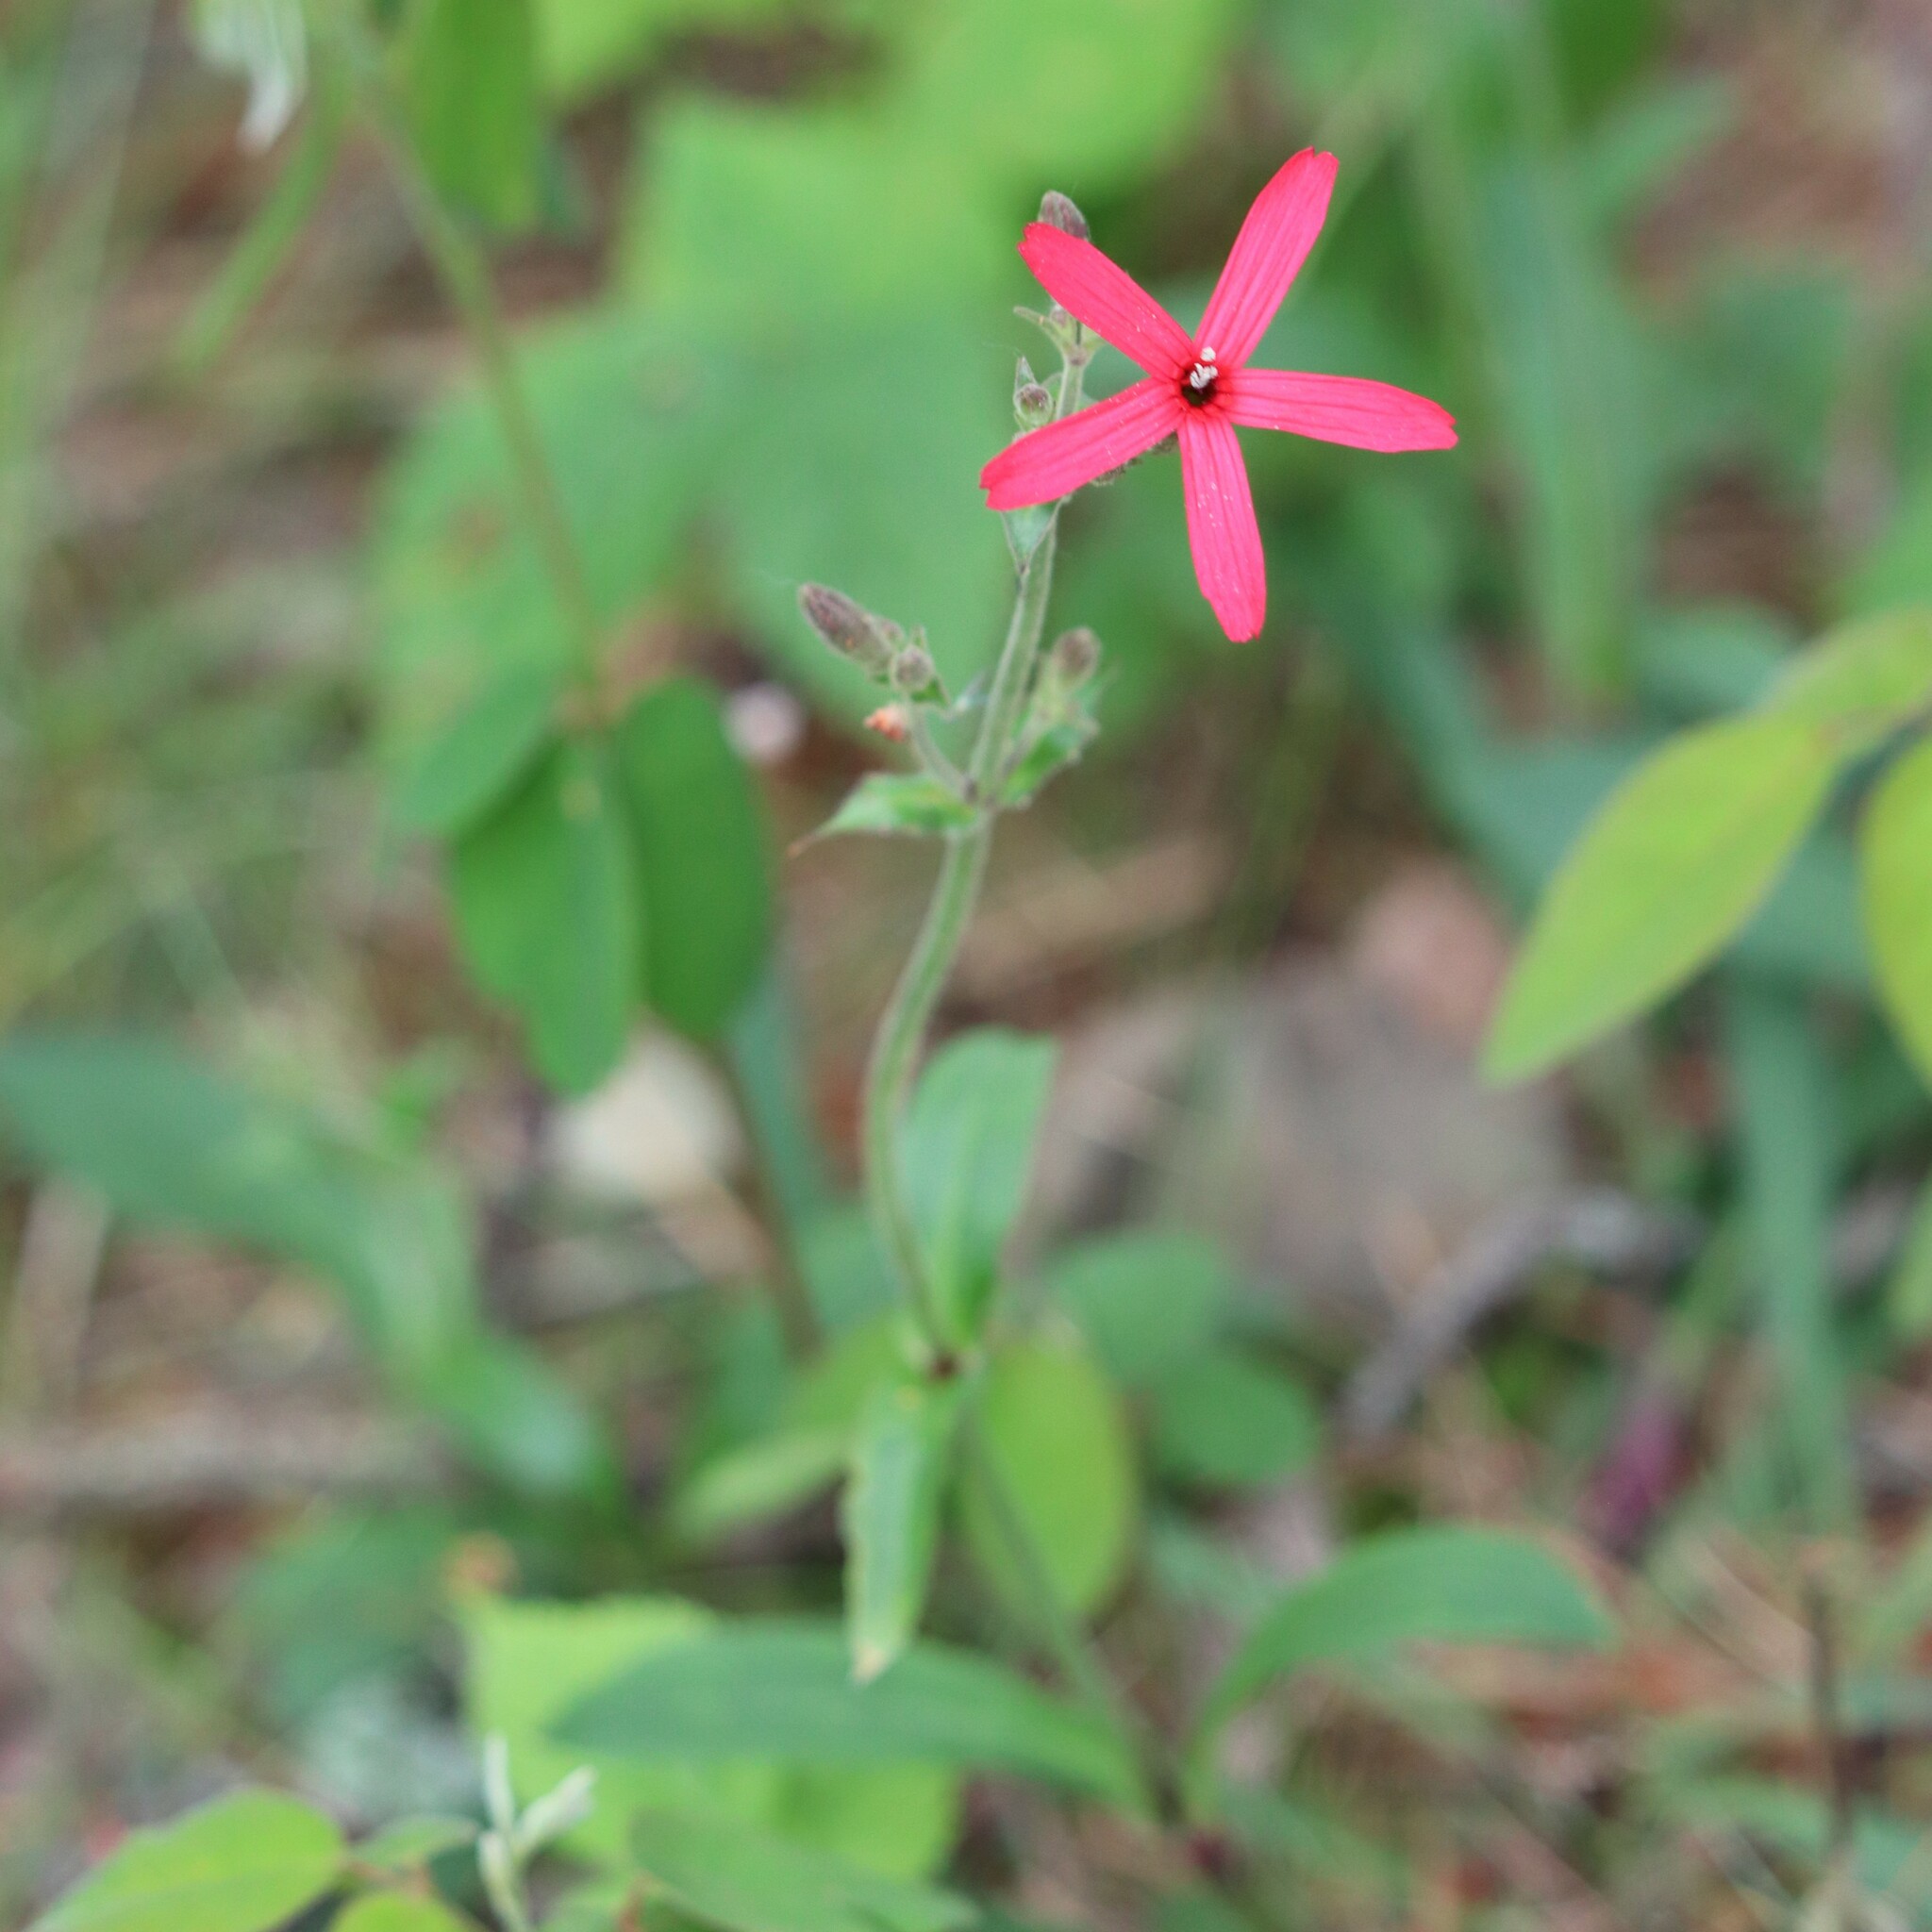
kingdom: Plantae
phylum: Tracheophyta
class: Magnoliopsida
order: Caryophyllales
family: Caryophyllaceae
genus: Silene
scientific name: Silene virginica
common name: Fire-pink
